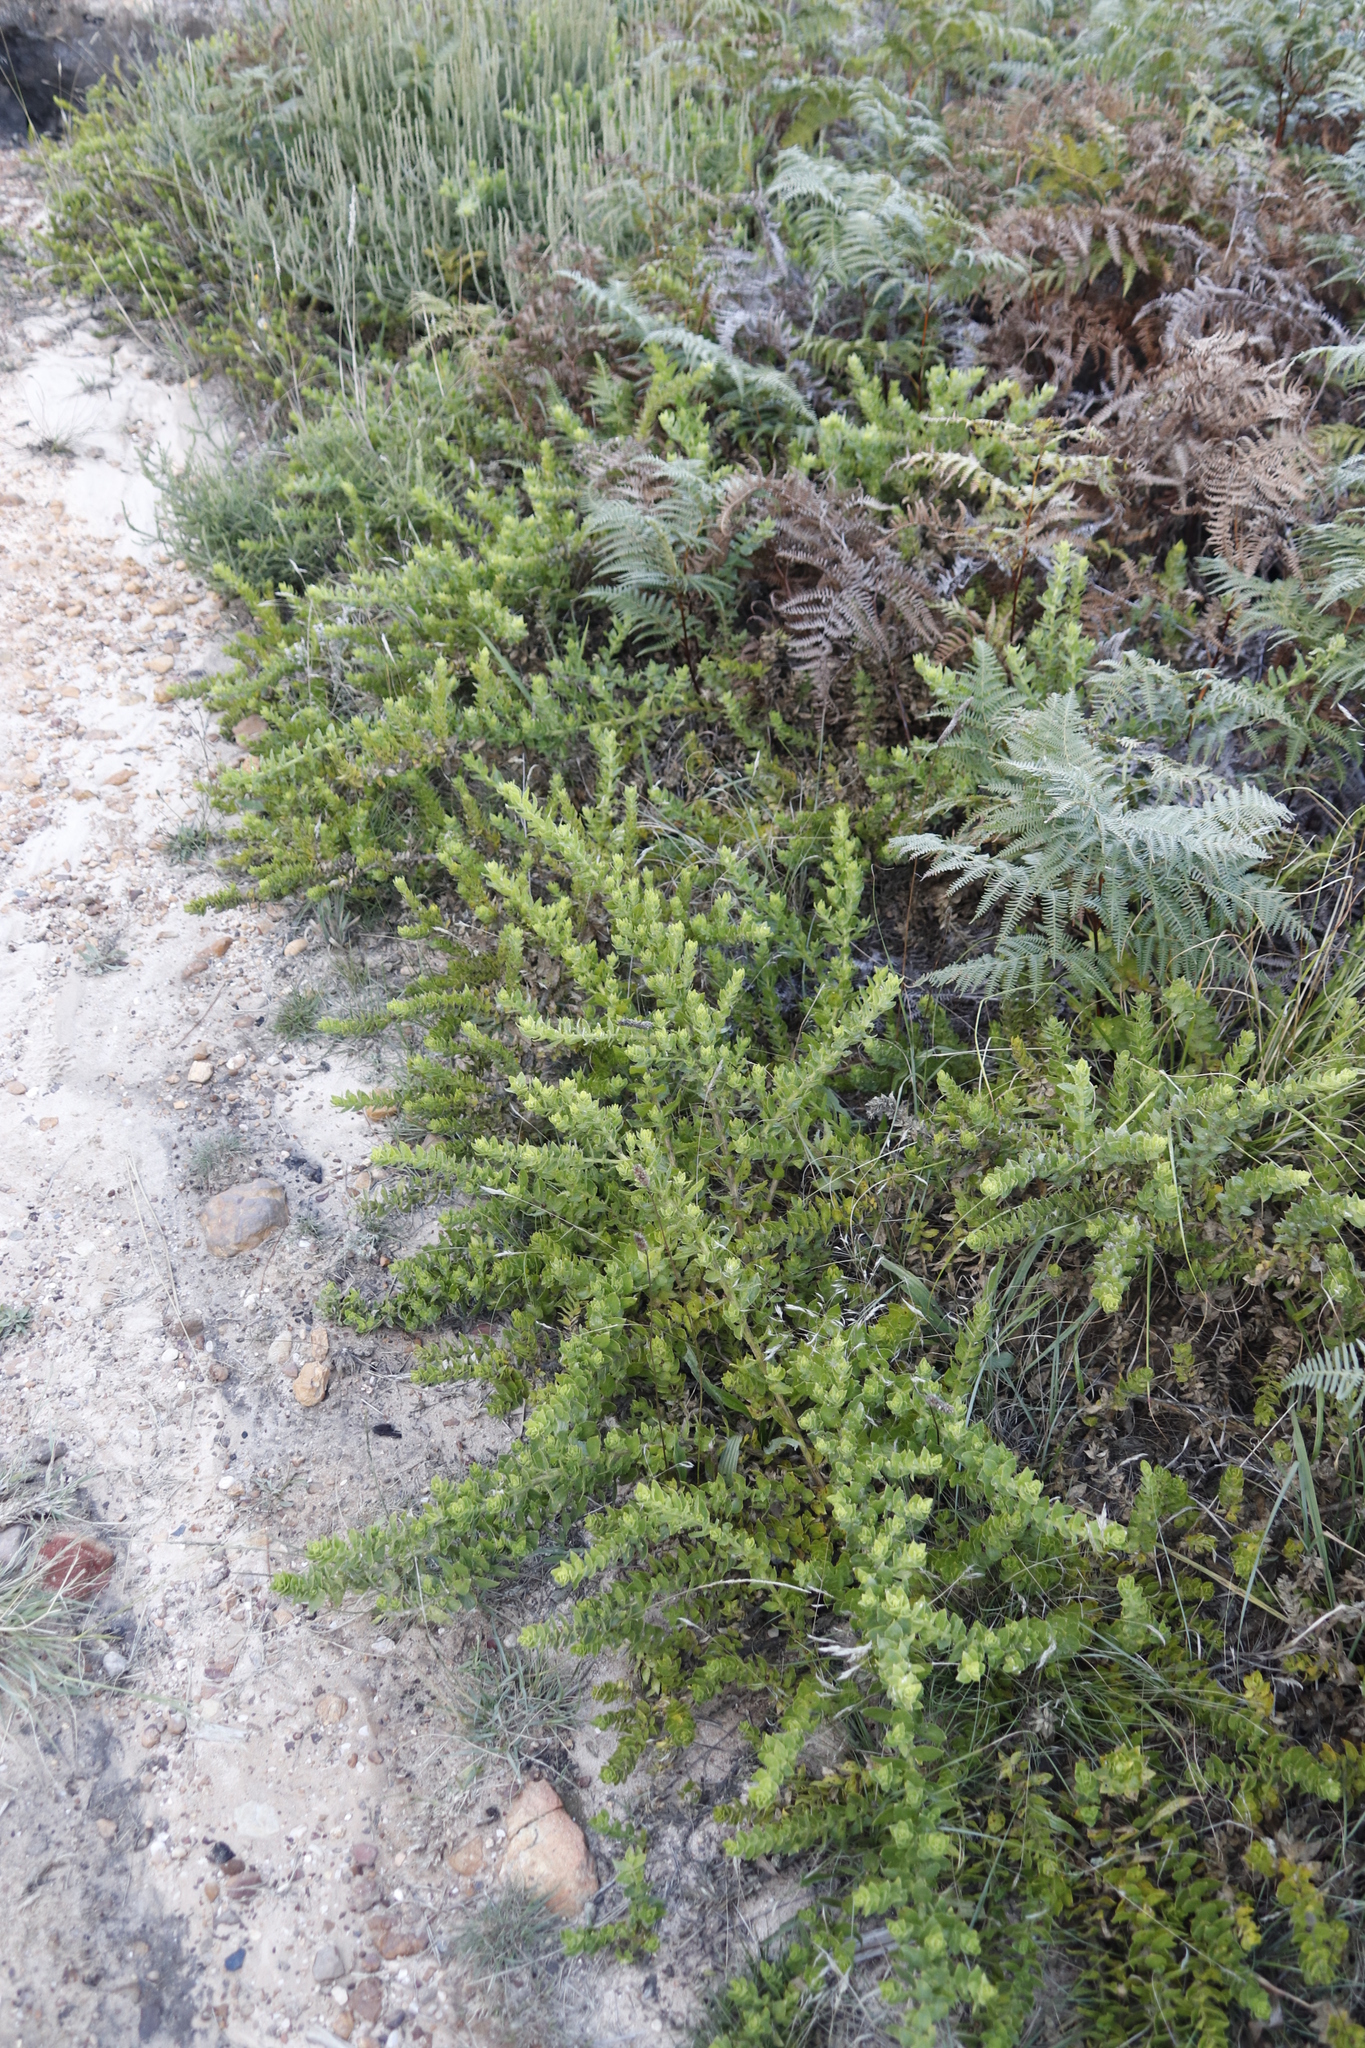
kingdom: Plantae
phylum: Tracheophyta
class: Magnoliopsida
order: Lamiales
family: Scrophulariaceae
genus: Oftia
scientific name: Oftia africana
